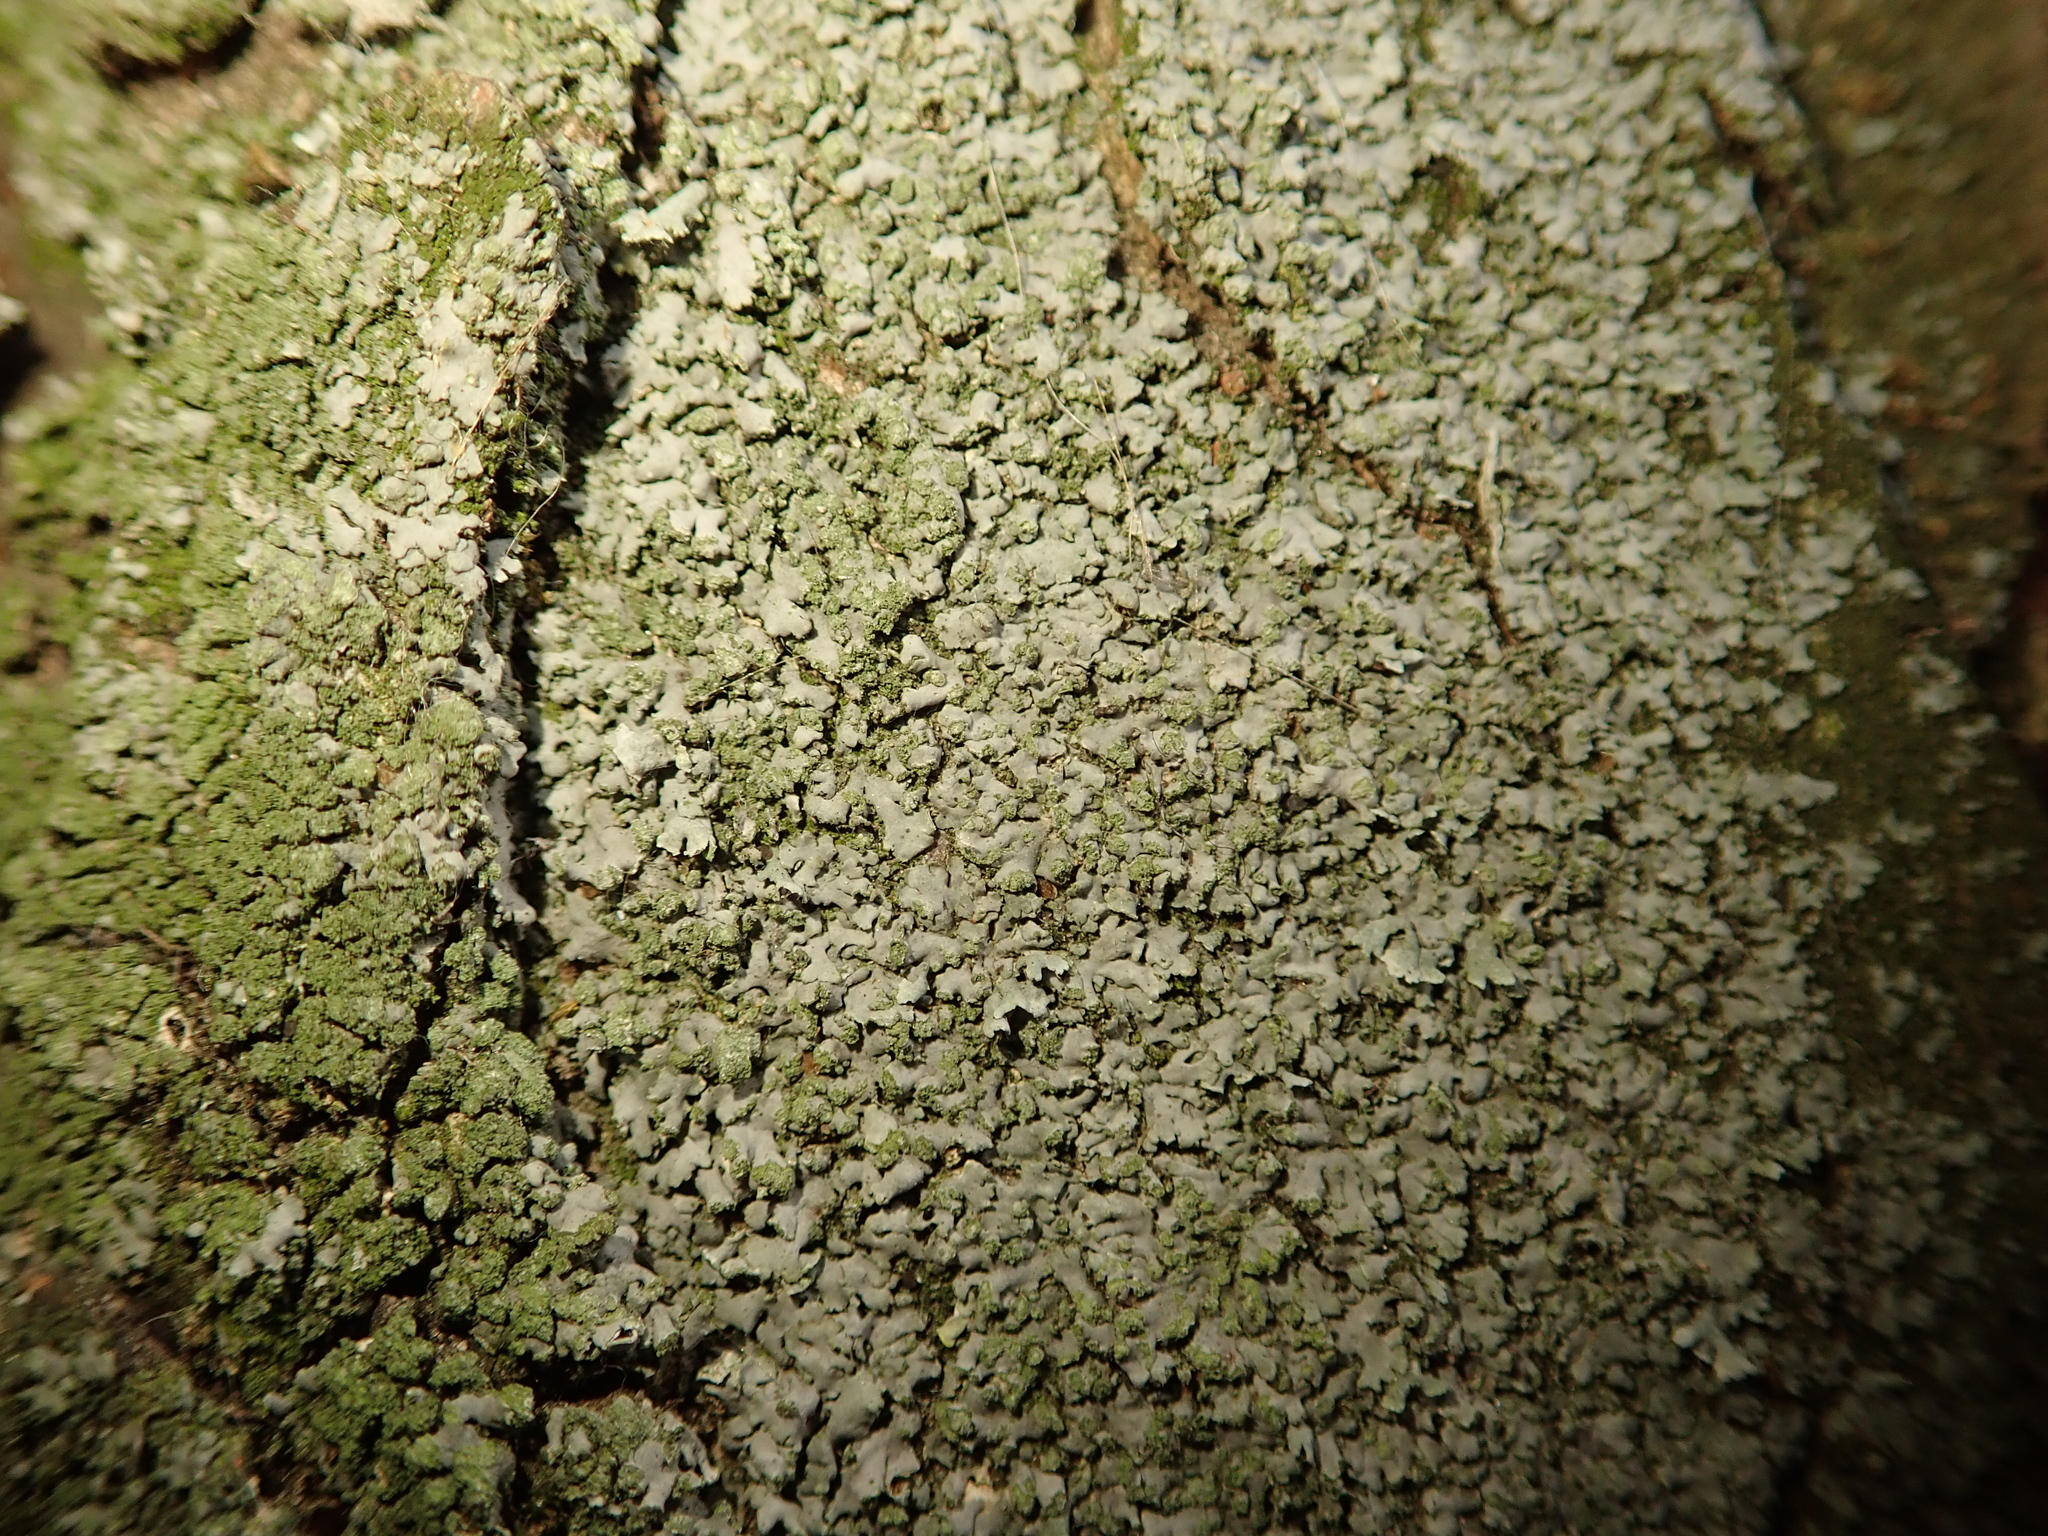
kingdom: Fungi
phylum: Ascomycota
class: Lecanoromycetes
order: Caliciales
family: Physciaceae
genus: Phaeophyscia
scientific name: Phaeophyscia orbicularis
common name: Mealy shadow lichen
